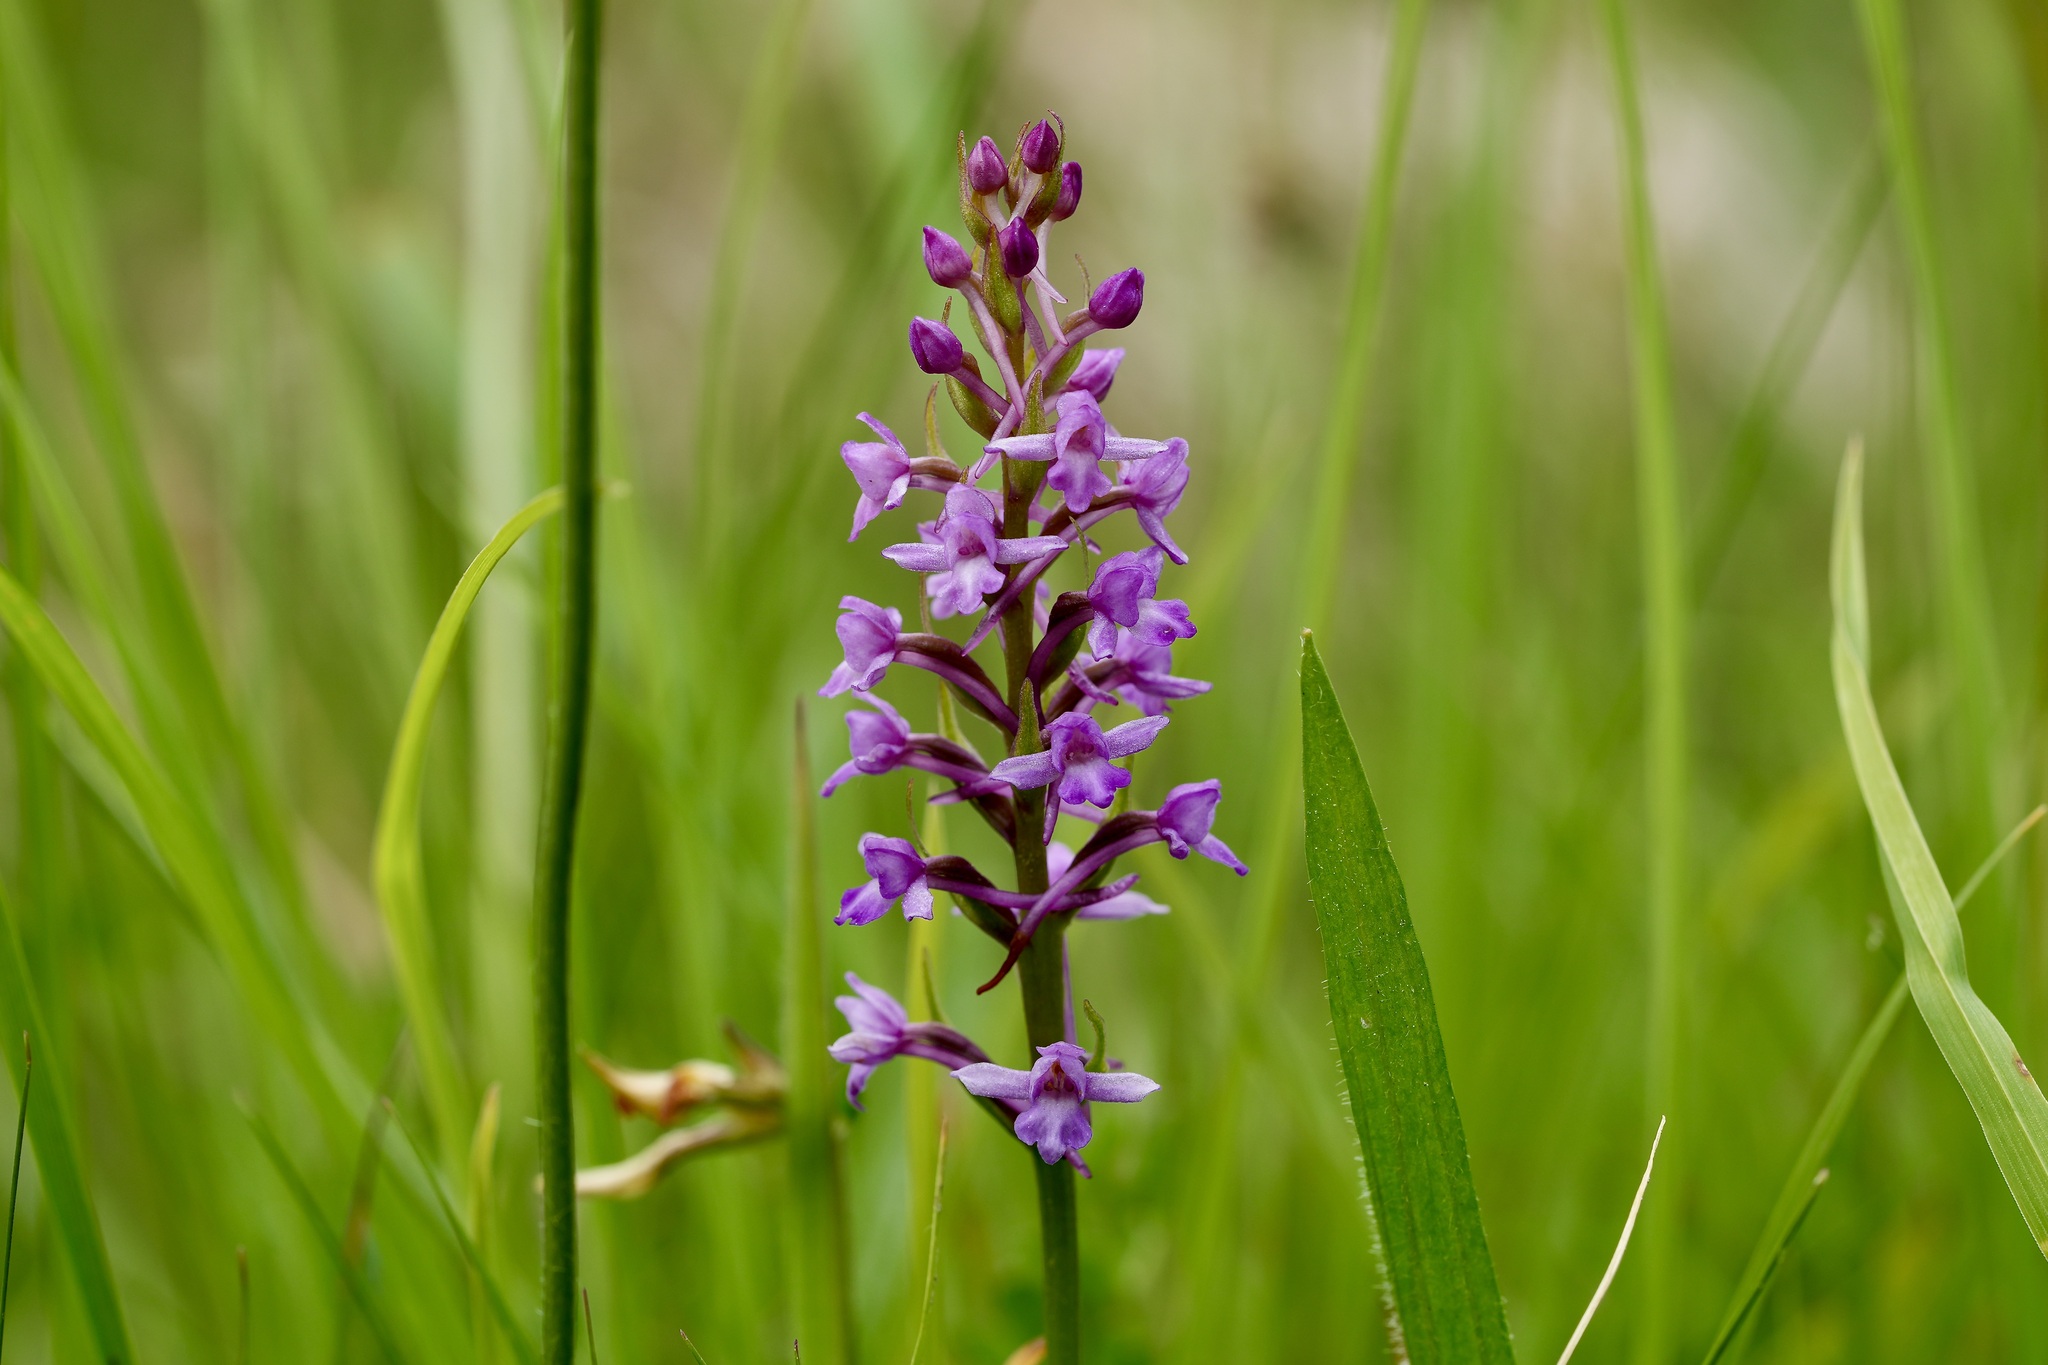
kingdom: Plantae
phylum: Tracheophyta
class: Liliopsida
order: Asparagales
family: Orchidaceae
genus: Gymnadenia
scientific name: Gymnadenia borealis
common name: Heath fragrant orchid
